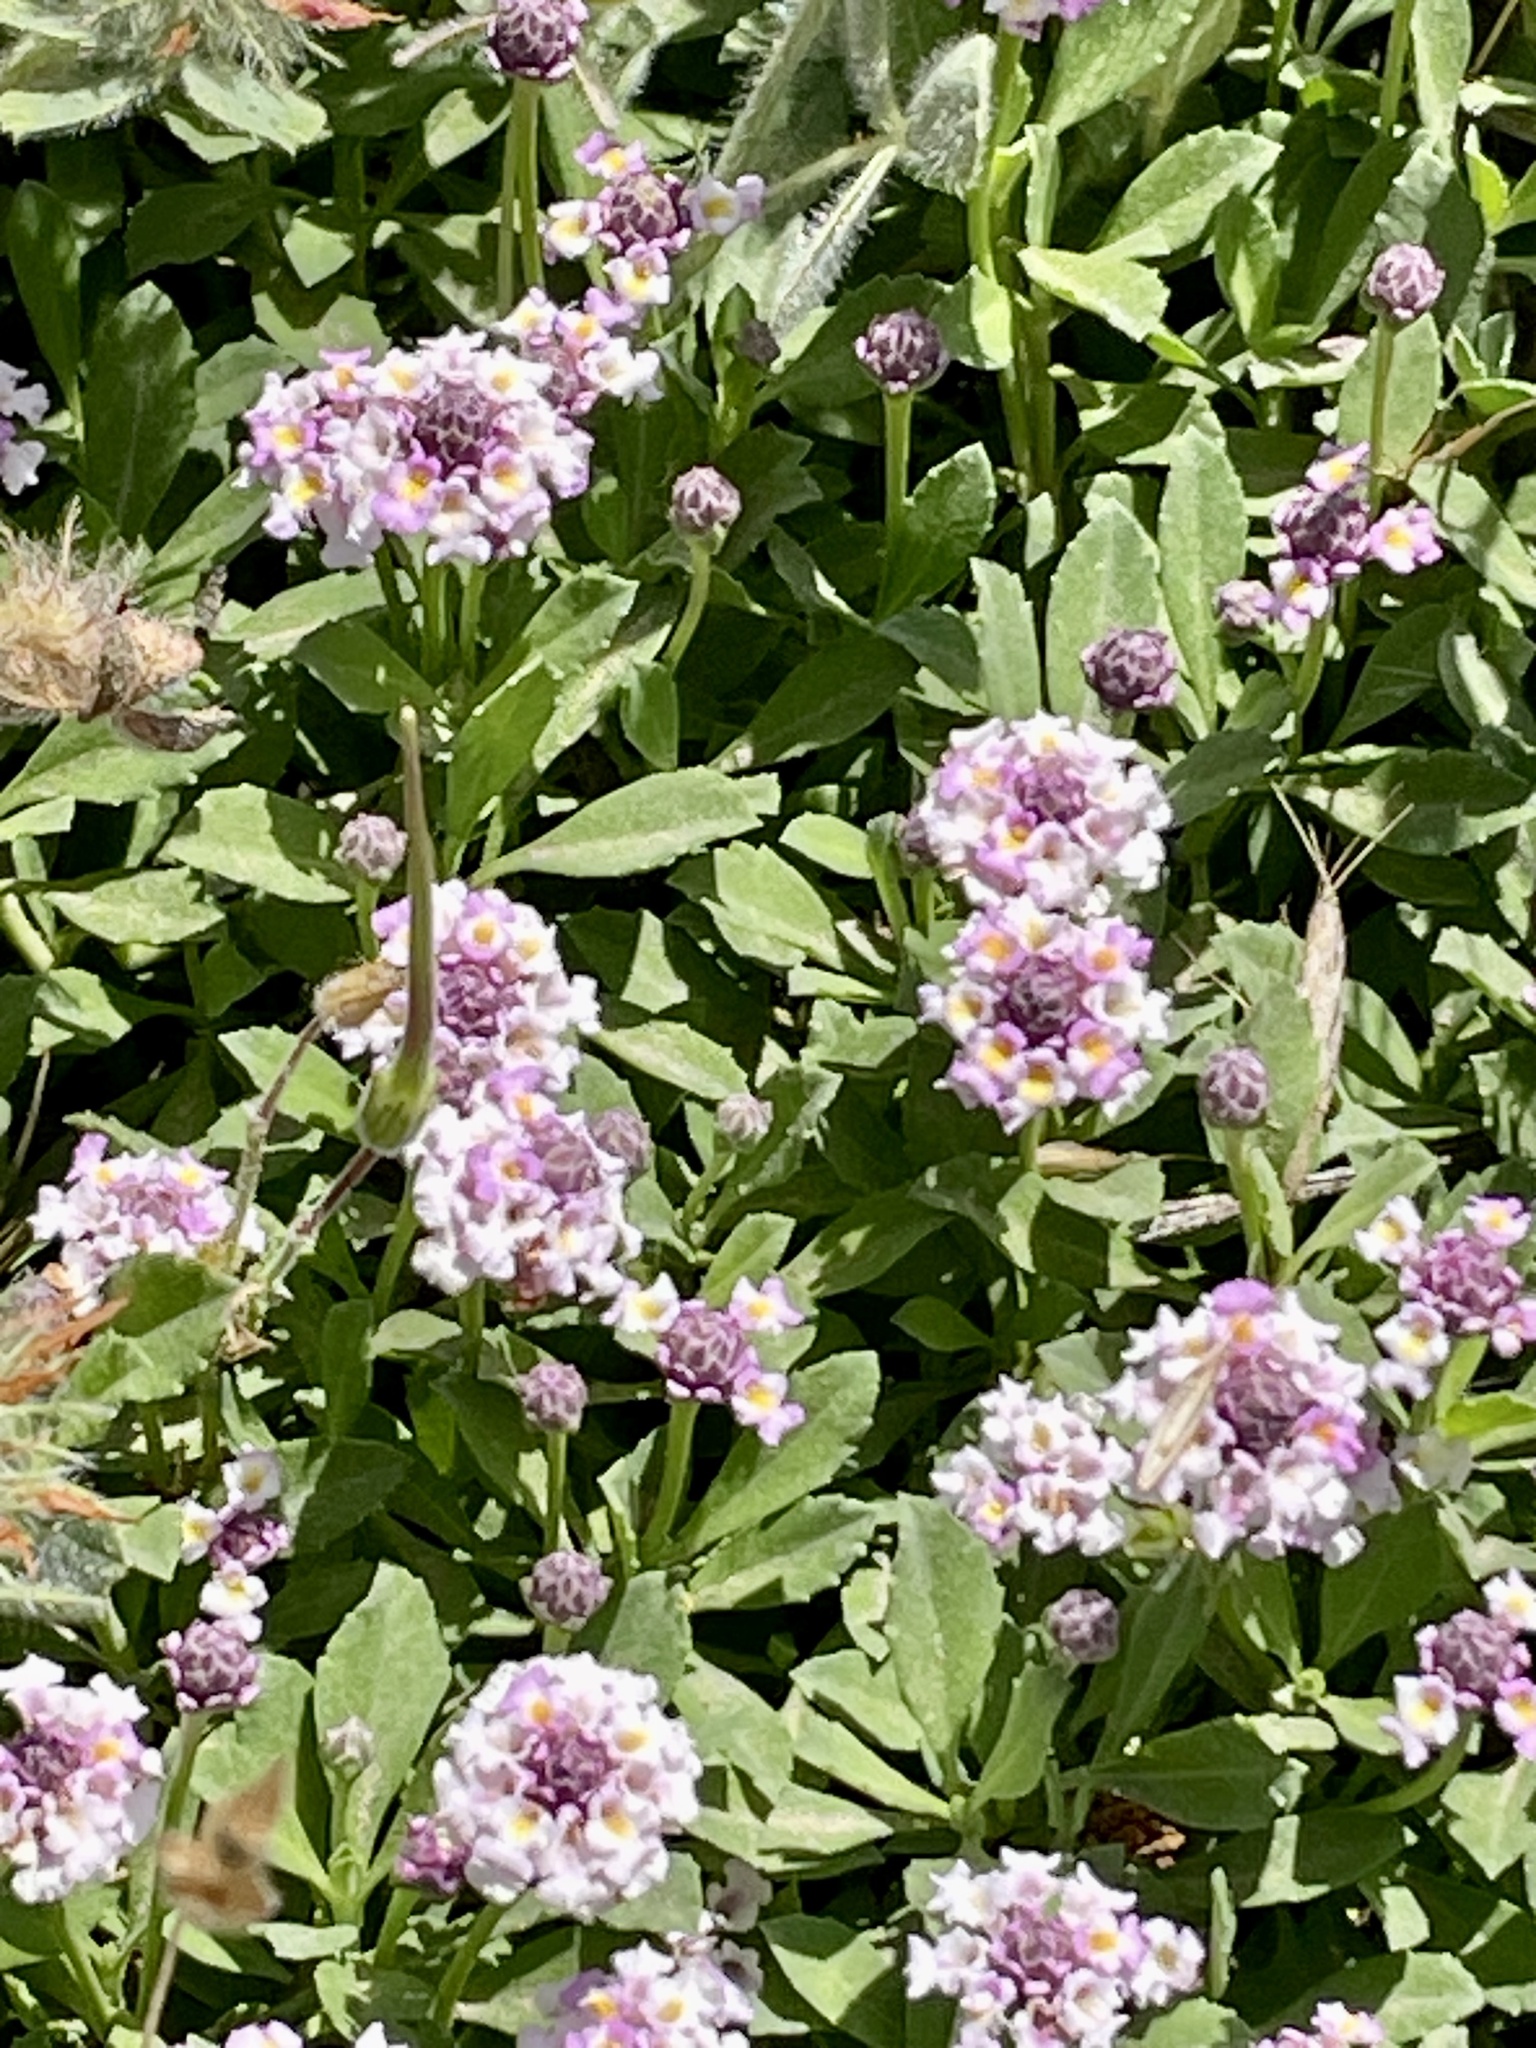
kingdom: Plantae
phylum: Tracheophyta
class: Magnoliopsida
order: Lamiales
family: Verbenaceae
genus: Phyla
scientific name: Phyla nodiflora
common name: Frogfruit
